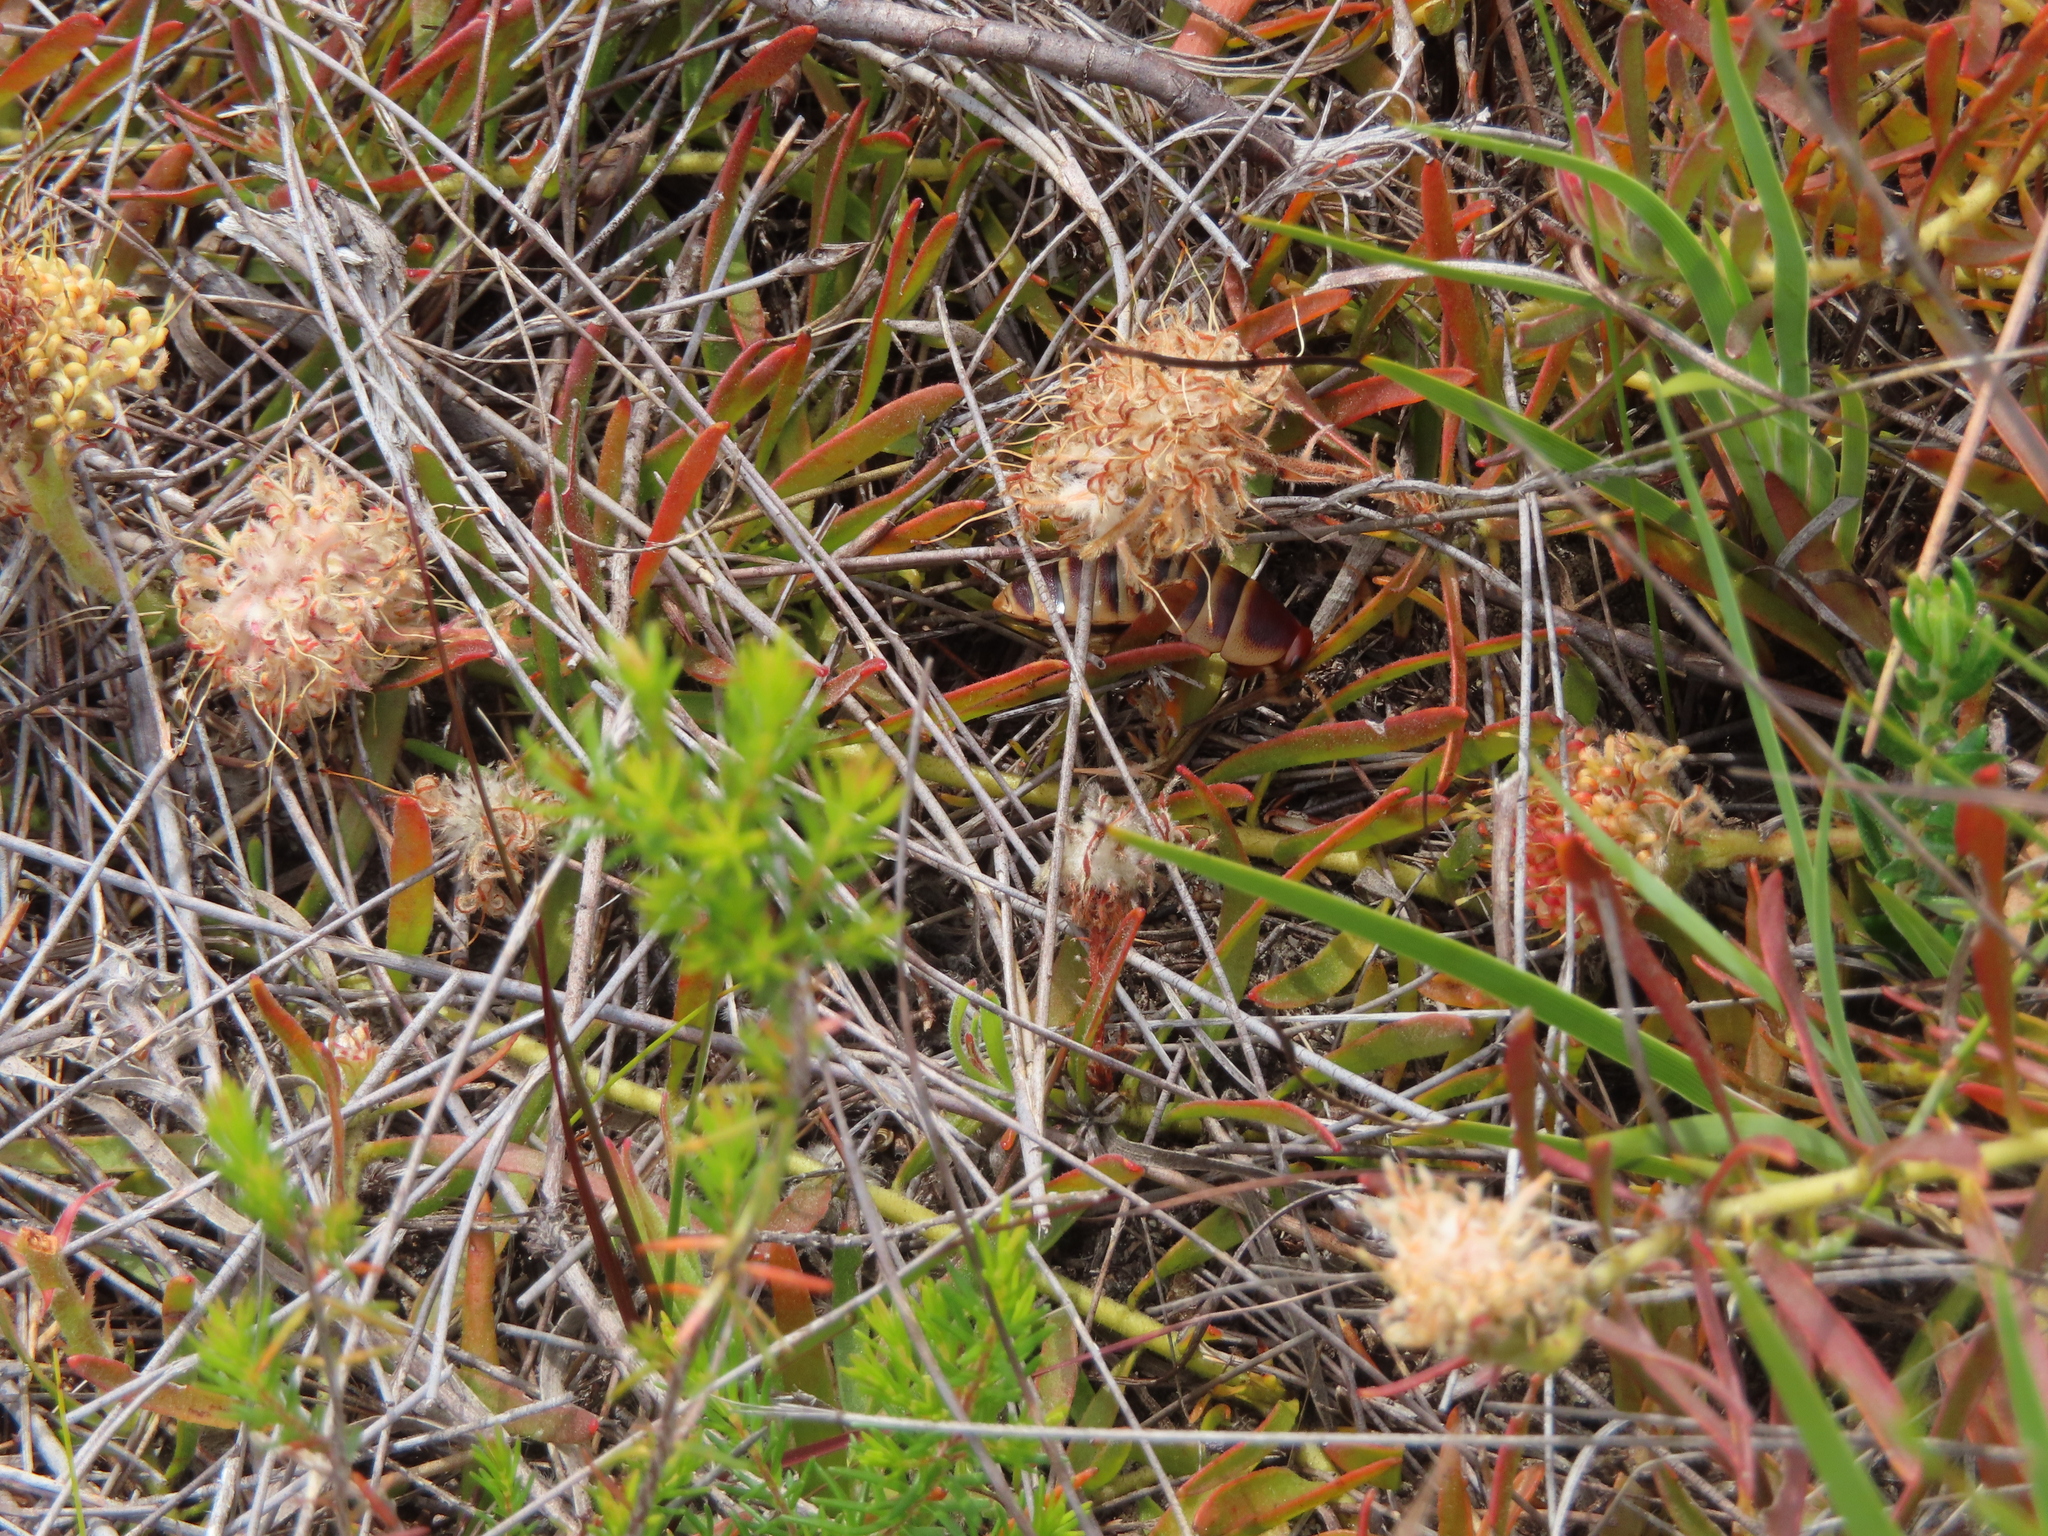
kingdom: Animalia
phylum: Arthropoda
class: Insecta
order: Blattodea
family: Blaberidae
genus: Aptera
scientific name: Aptera fusca
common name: Cape mountain cockroach
